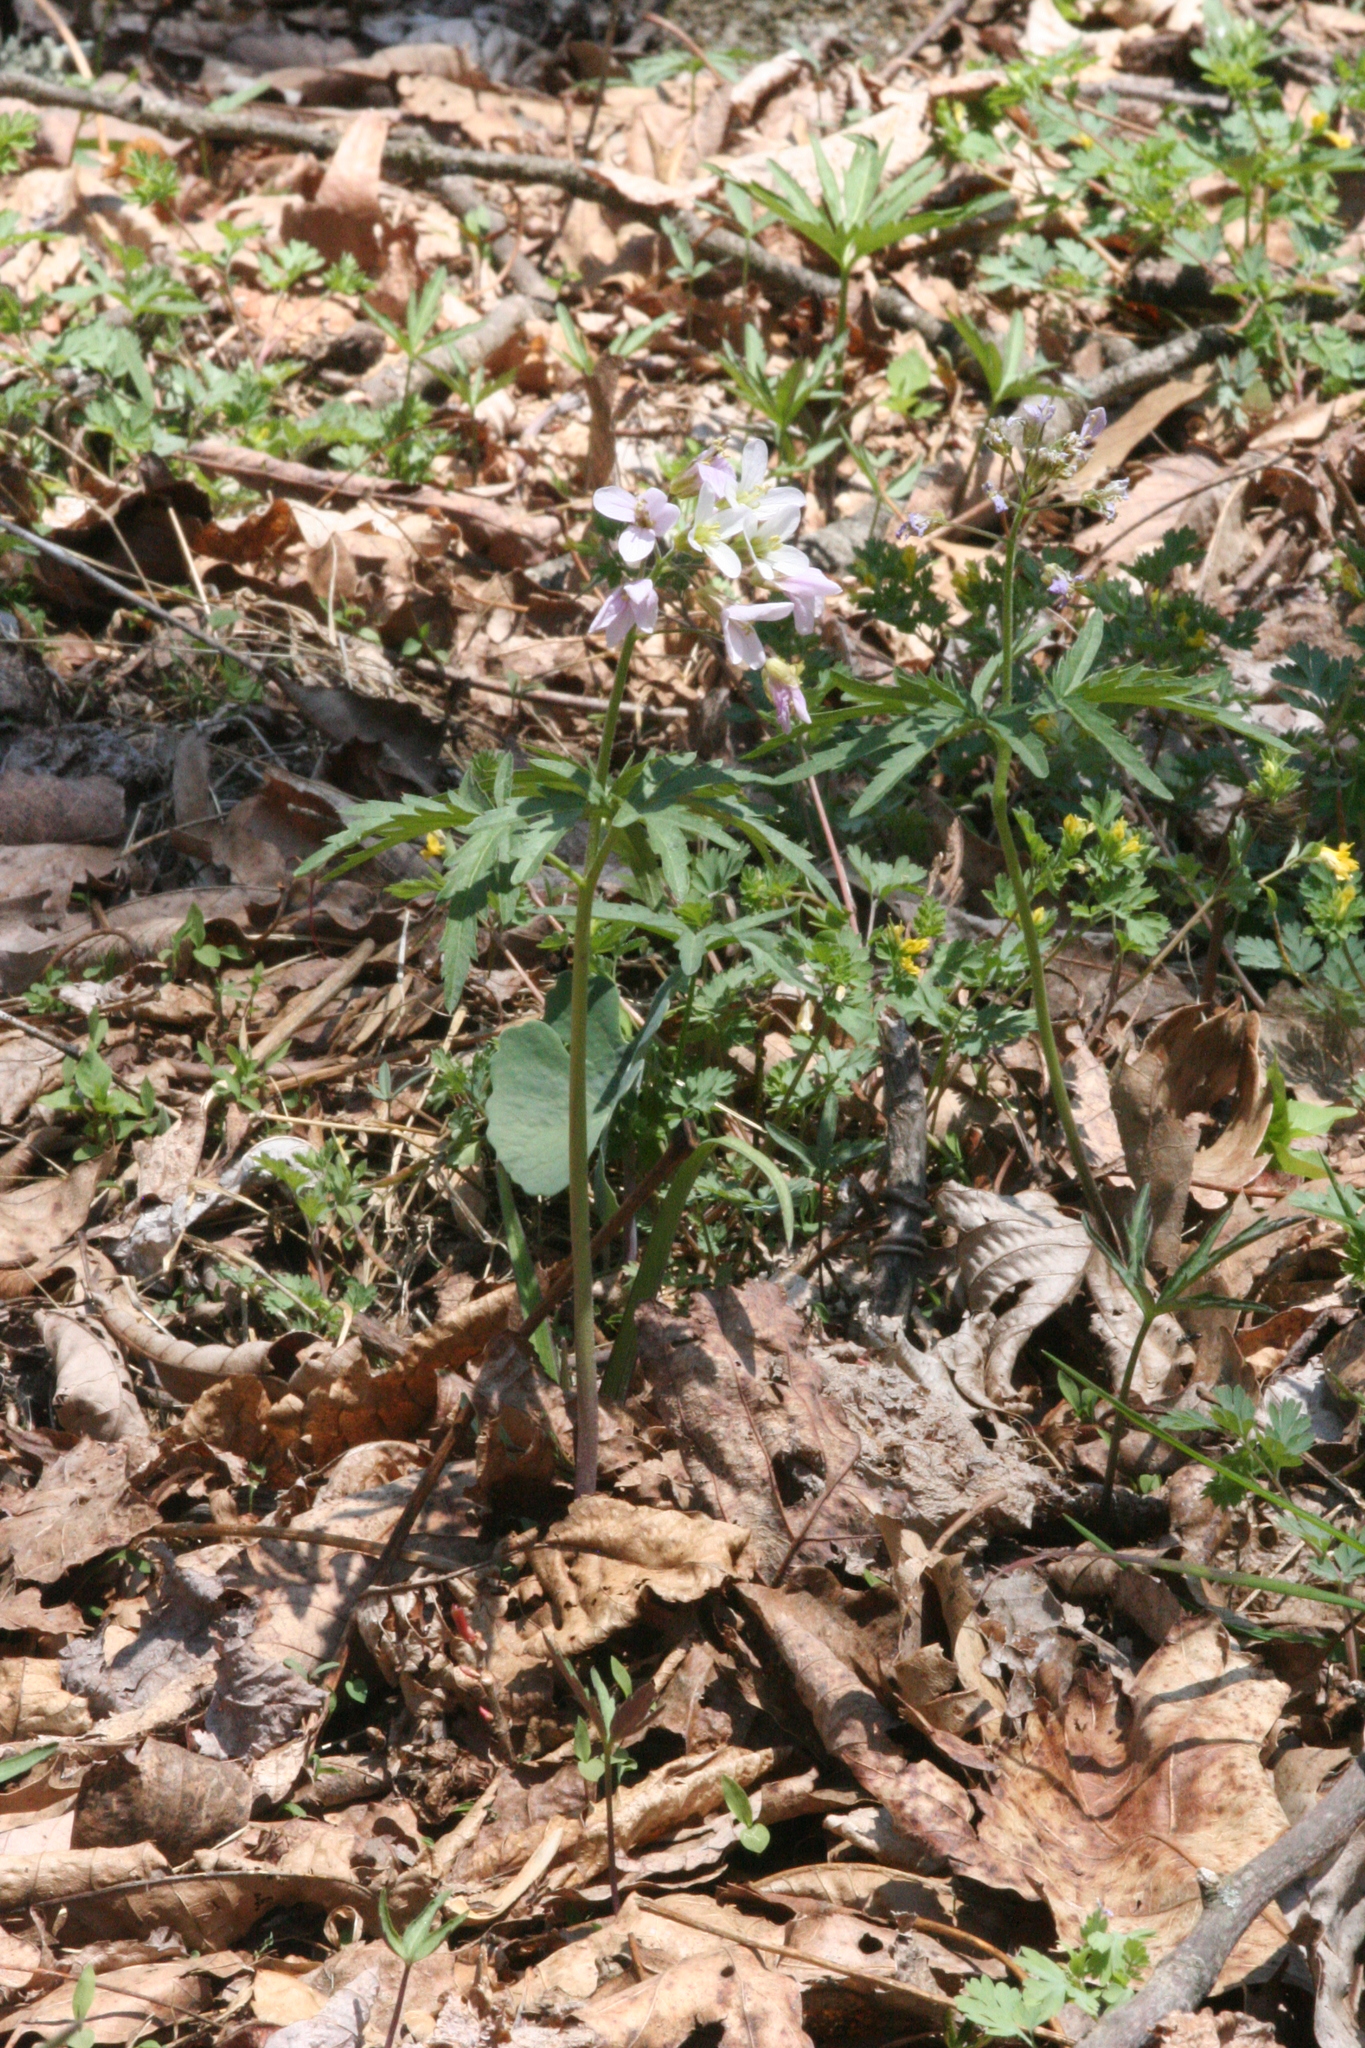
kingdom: Plantae
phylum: Tracheophyta
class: Magnoliopsida
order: Brassicales
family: Brassicaceae
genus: Cardamine
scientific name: Cardamine concatenata
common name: Cut-leaf toothcup
